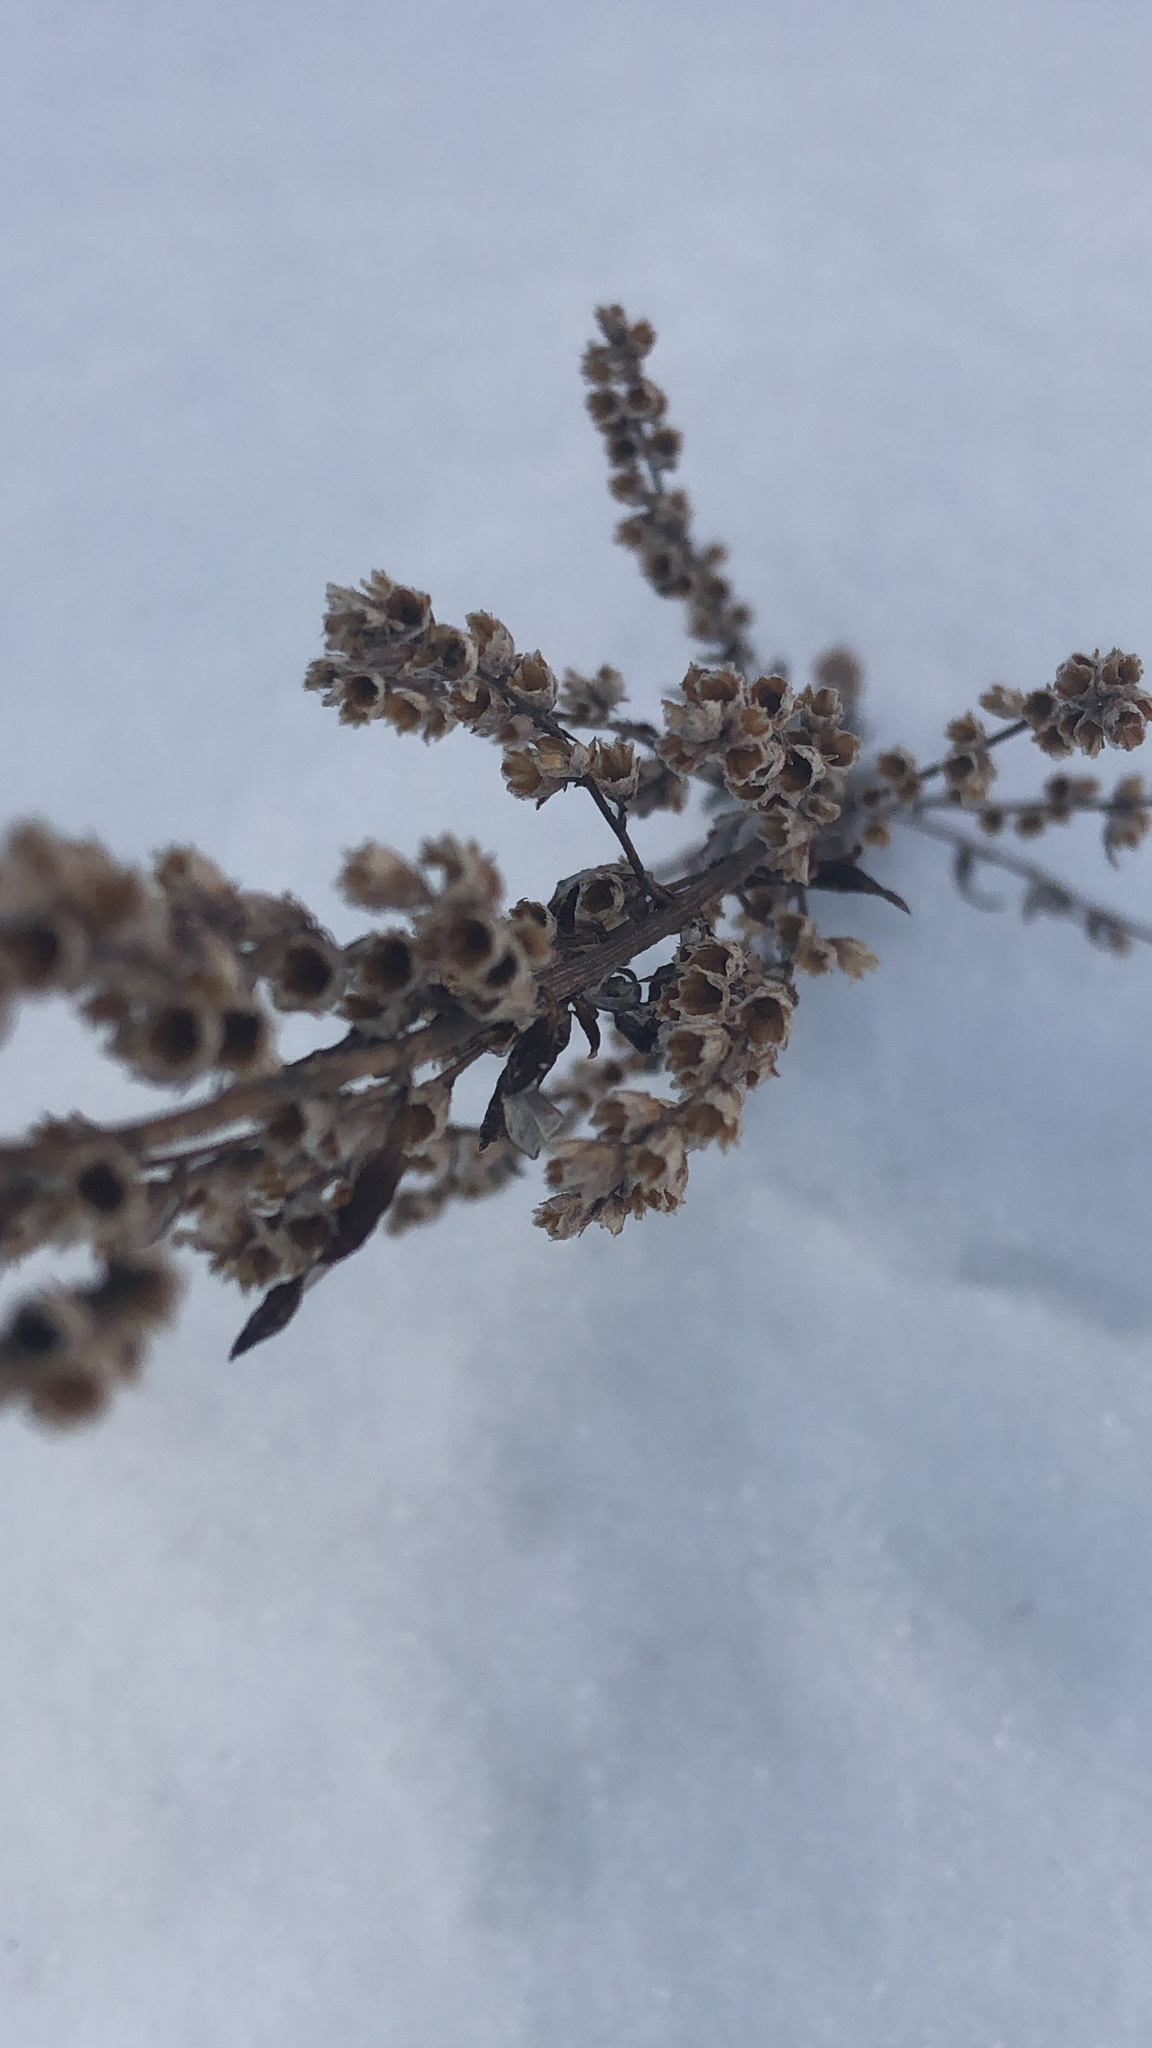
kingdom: Plantae
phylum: Tracheophyta
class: Magnoliopsida
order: Asterales
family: Asteraceae
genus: Artemisia
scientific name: Artemisia vulgaris
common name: Mugwort
